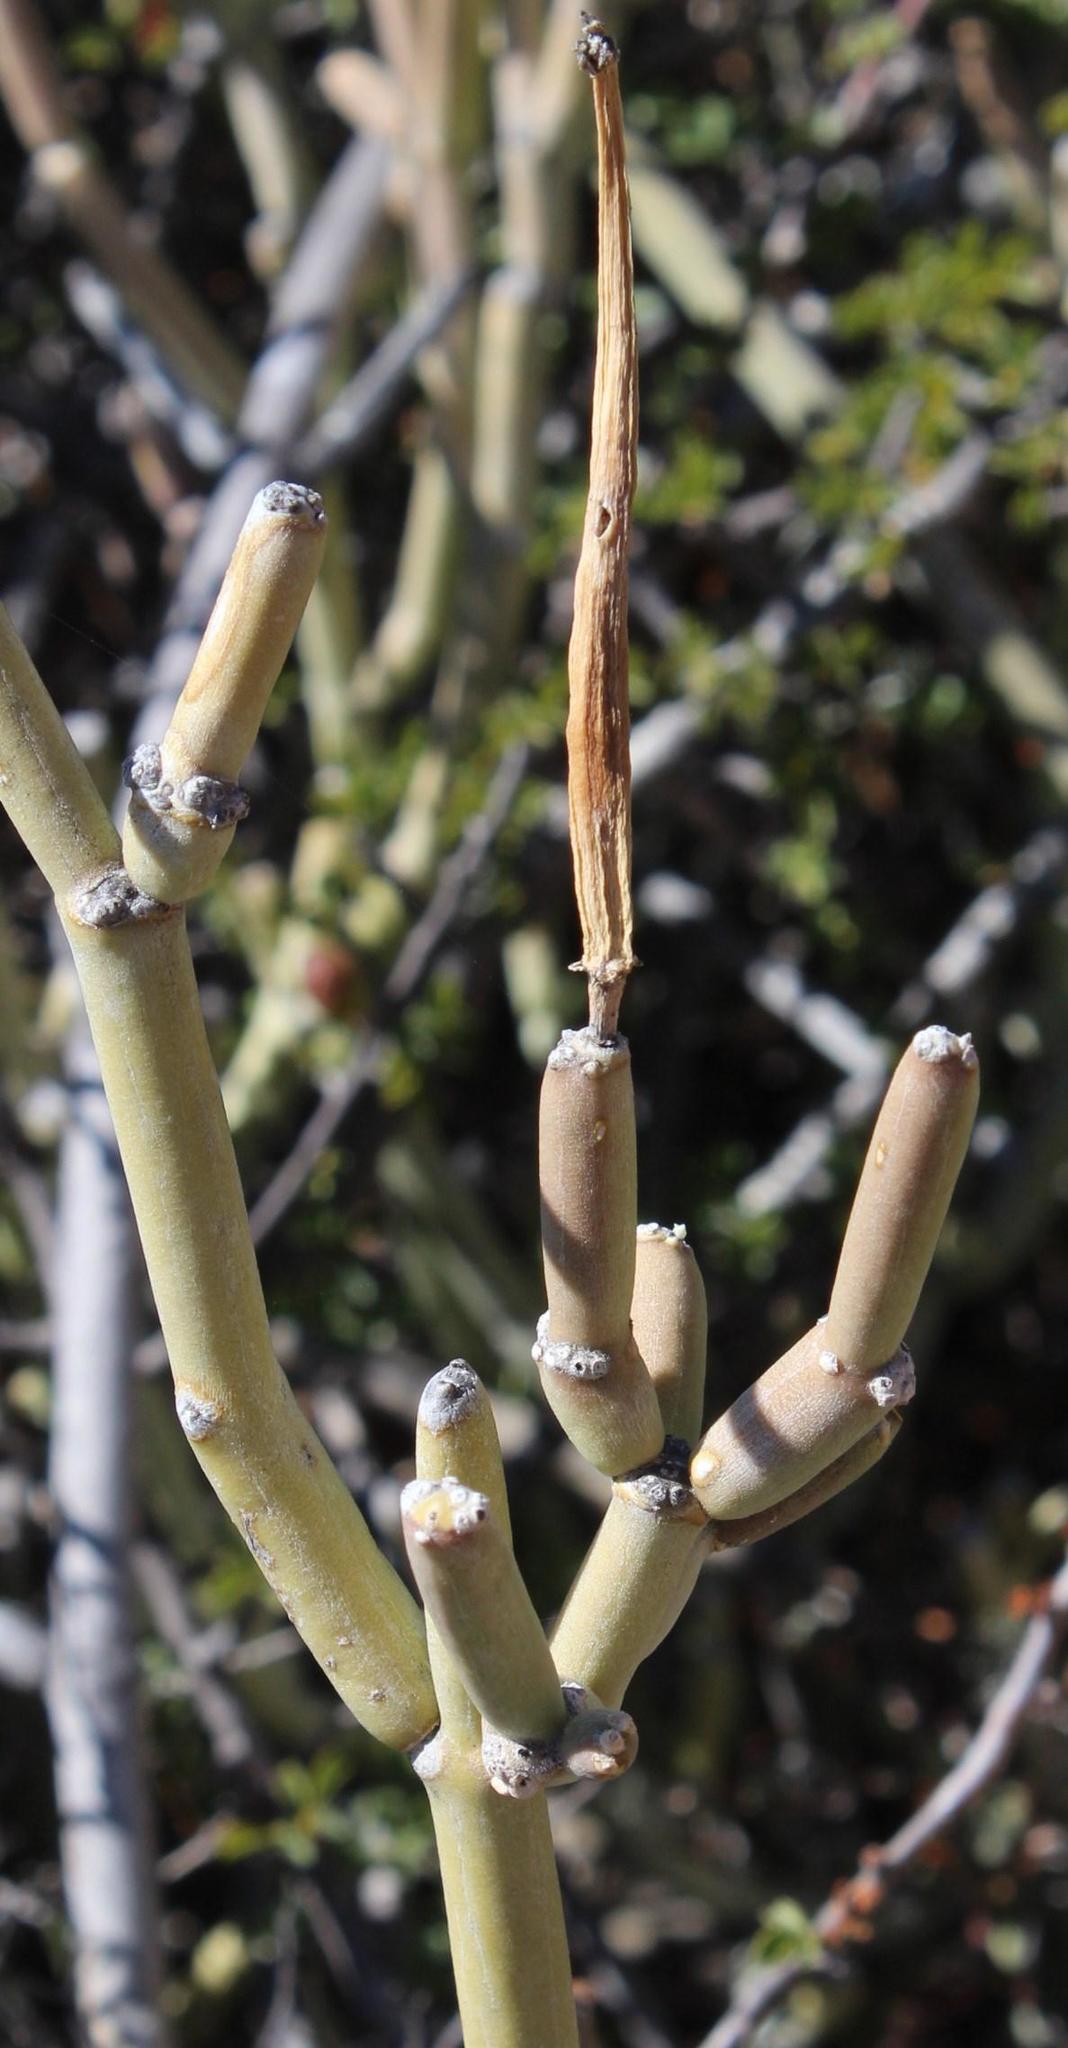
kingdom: Plantae
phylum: Tracheophyta
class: Magnoliopsida
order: Gentianales
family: Apocynaceae
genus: Cynanchum
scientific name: Cynanchum viminale
